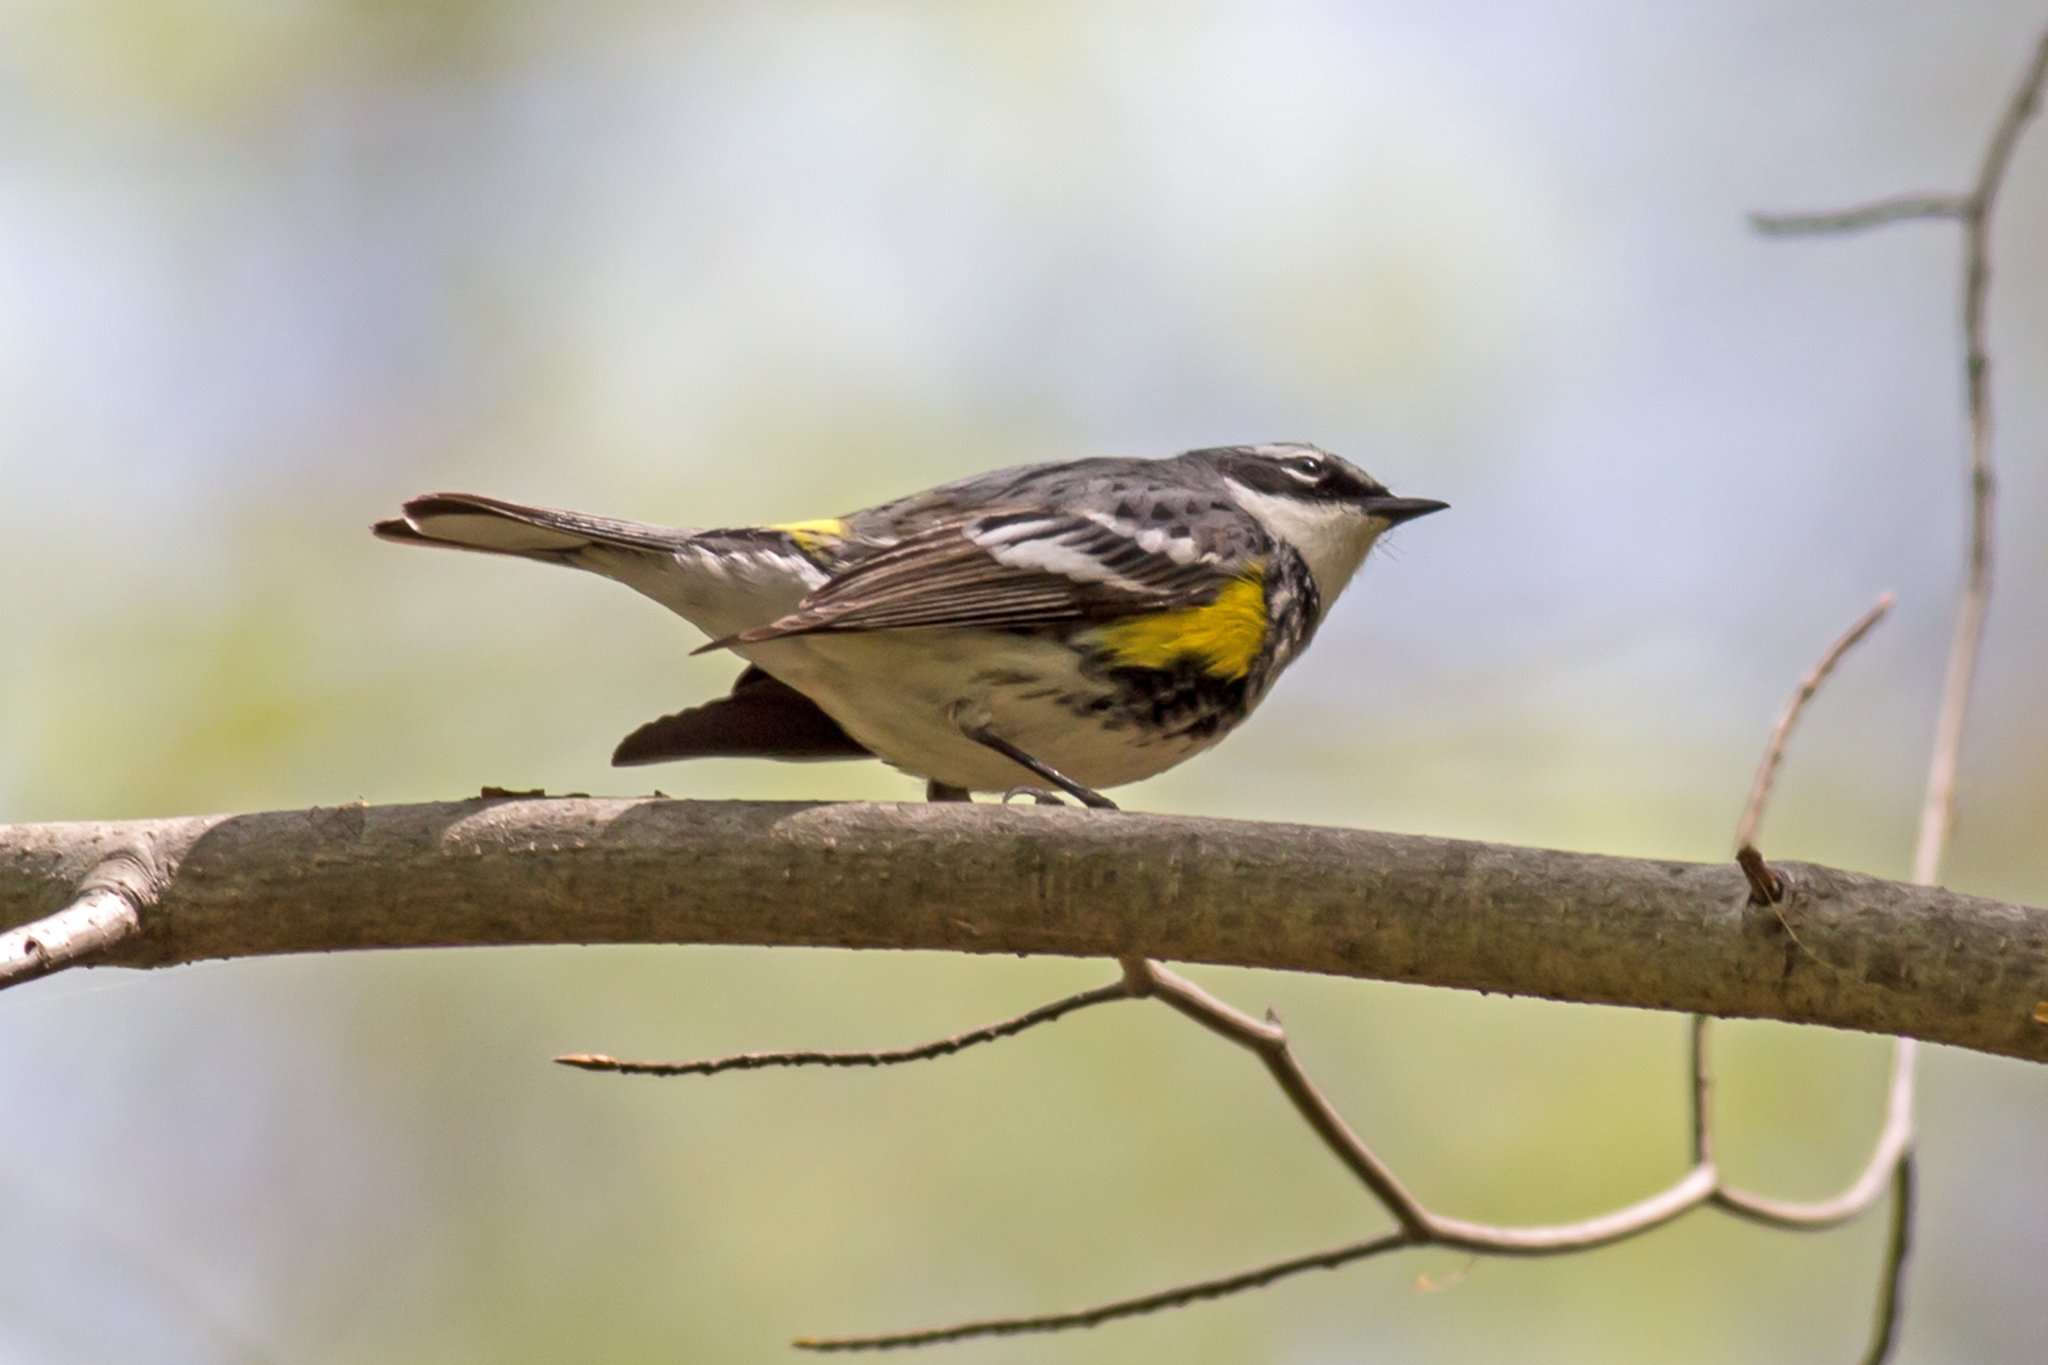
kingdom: Animalia
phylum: Chordata
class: Aves
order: Passeriformes
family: Parulidae
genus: Setophaga
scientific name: Setophaga coronata
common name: Myrtle warbler
